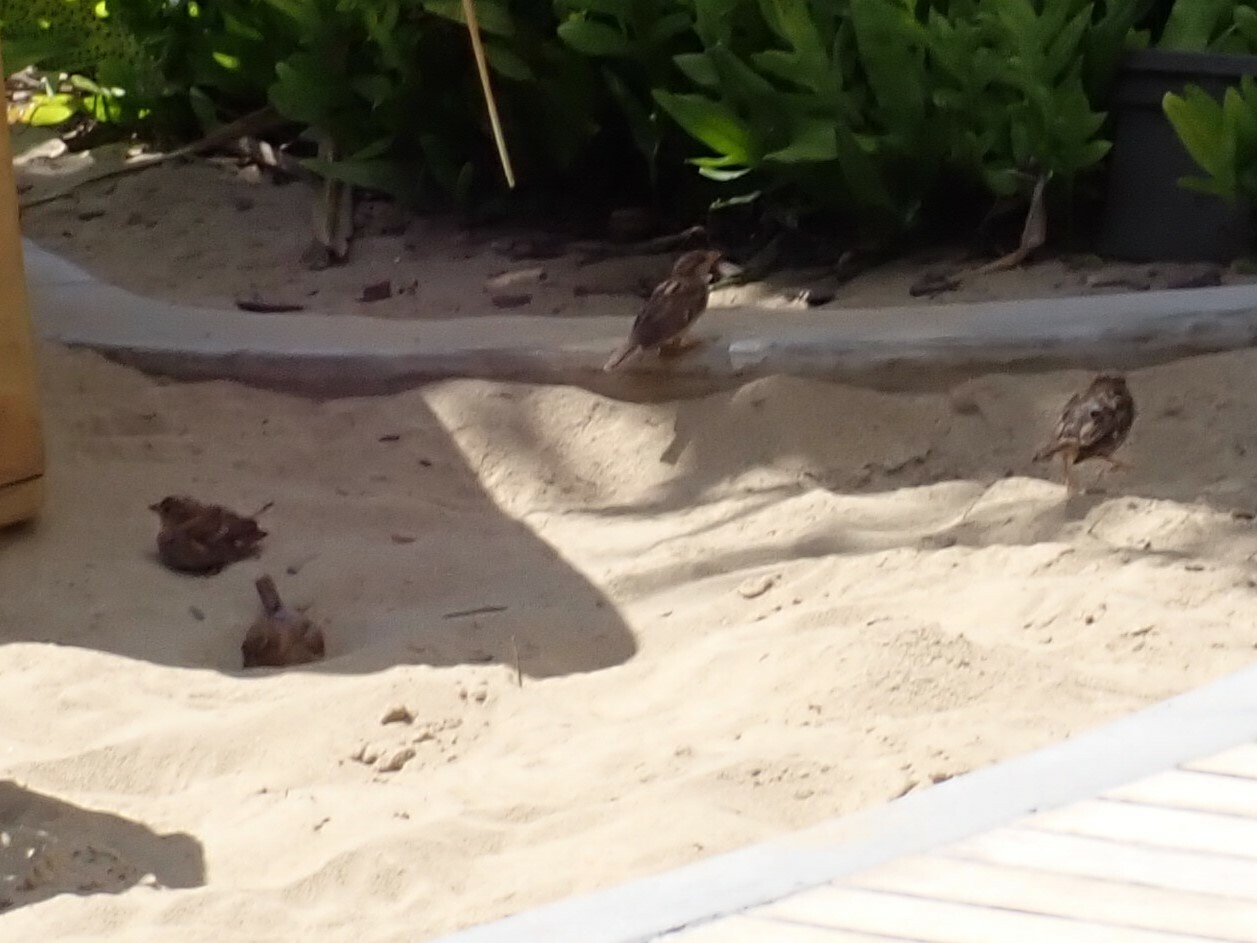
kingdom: Animalia
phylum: Chordata
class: Aves
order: Passeriformes
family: Passeridae
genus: Passer
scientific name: Passer domesticus
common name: House sparrow
